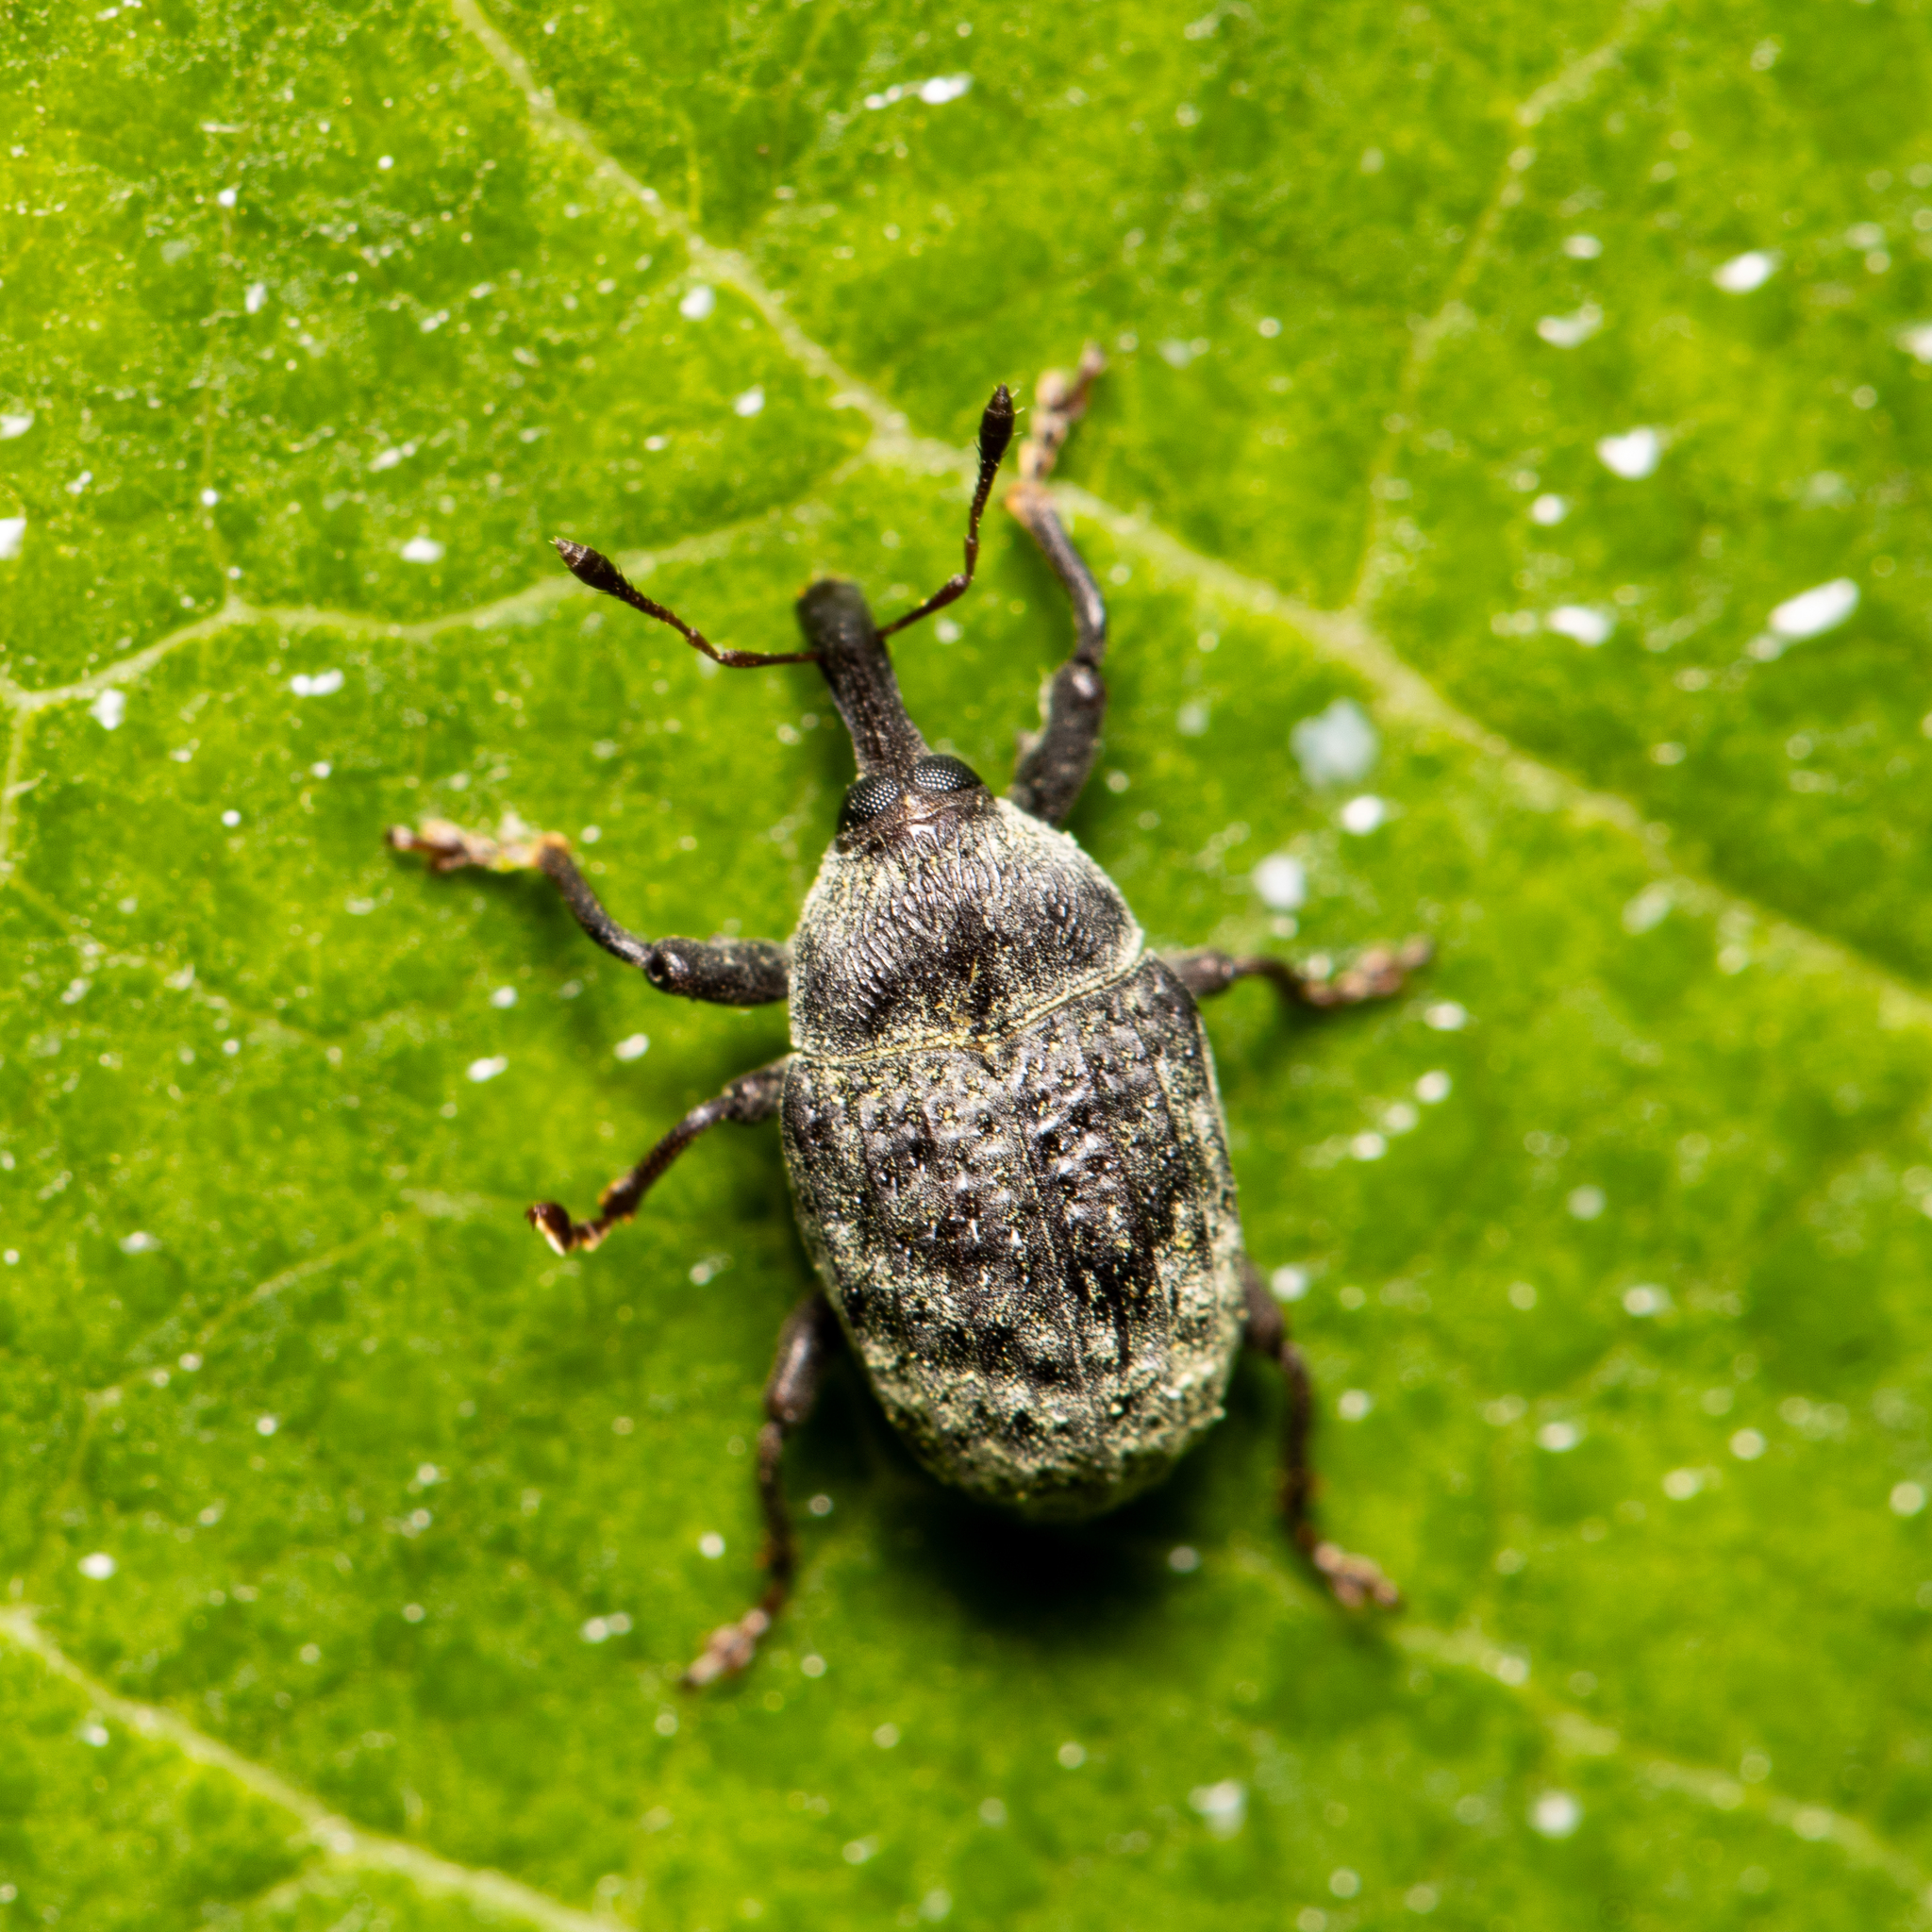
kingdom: Animalia
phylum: Arthropoda
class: Insecta
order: Coleoptera
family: Curculionidae
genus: Rhyssomatus
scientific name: Rhyssomatus lineaticollis
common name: Milkweed stem weevil
